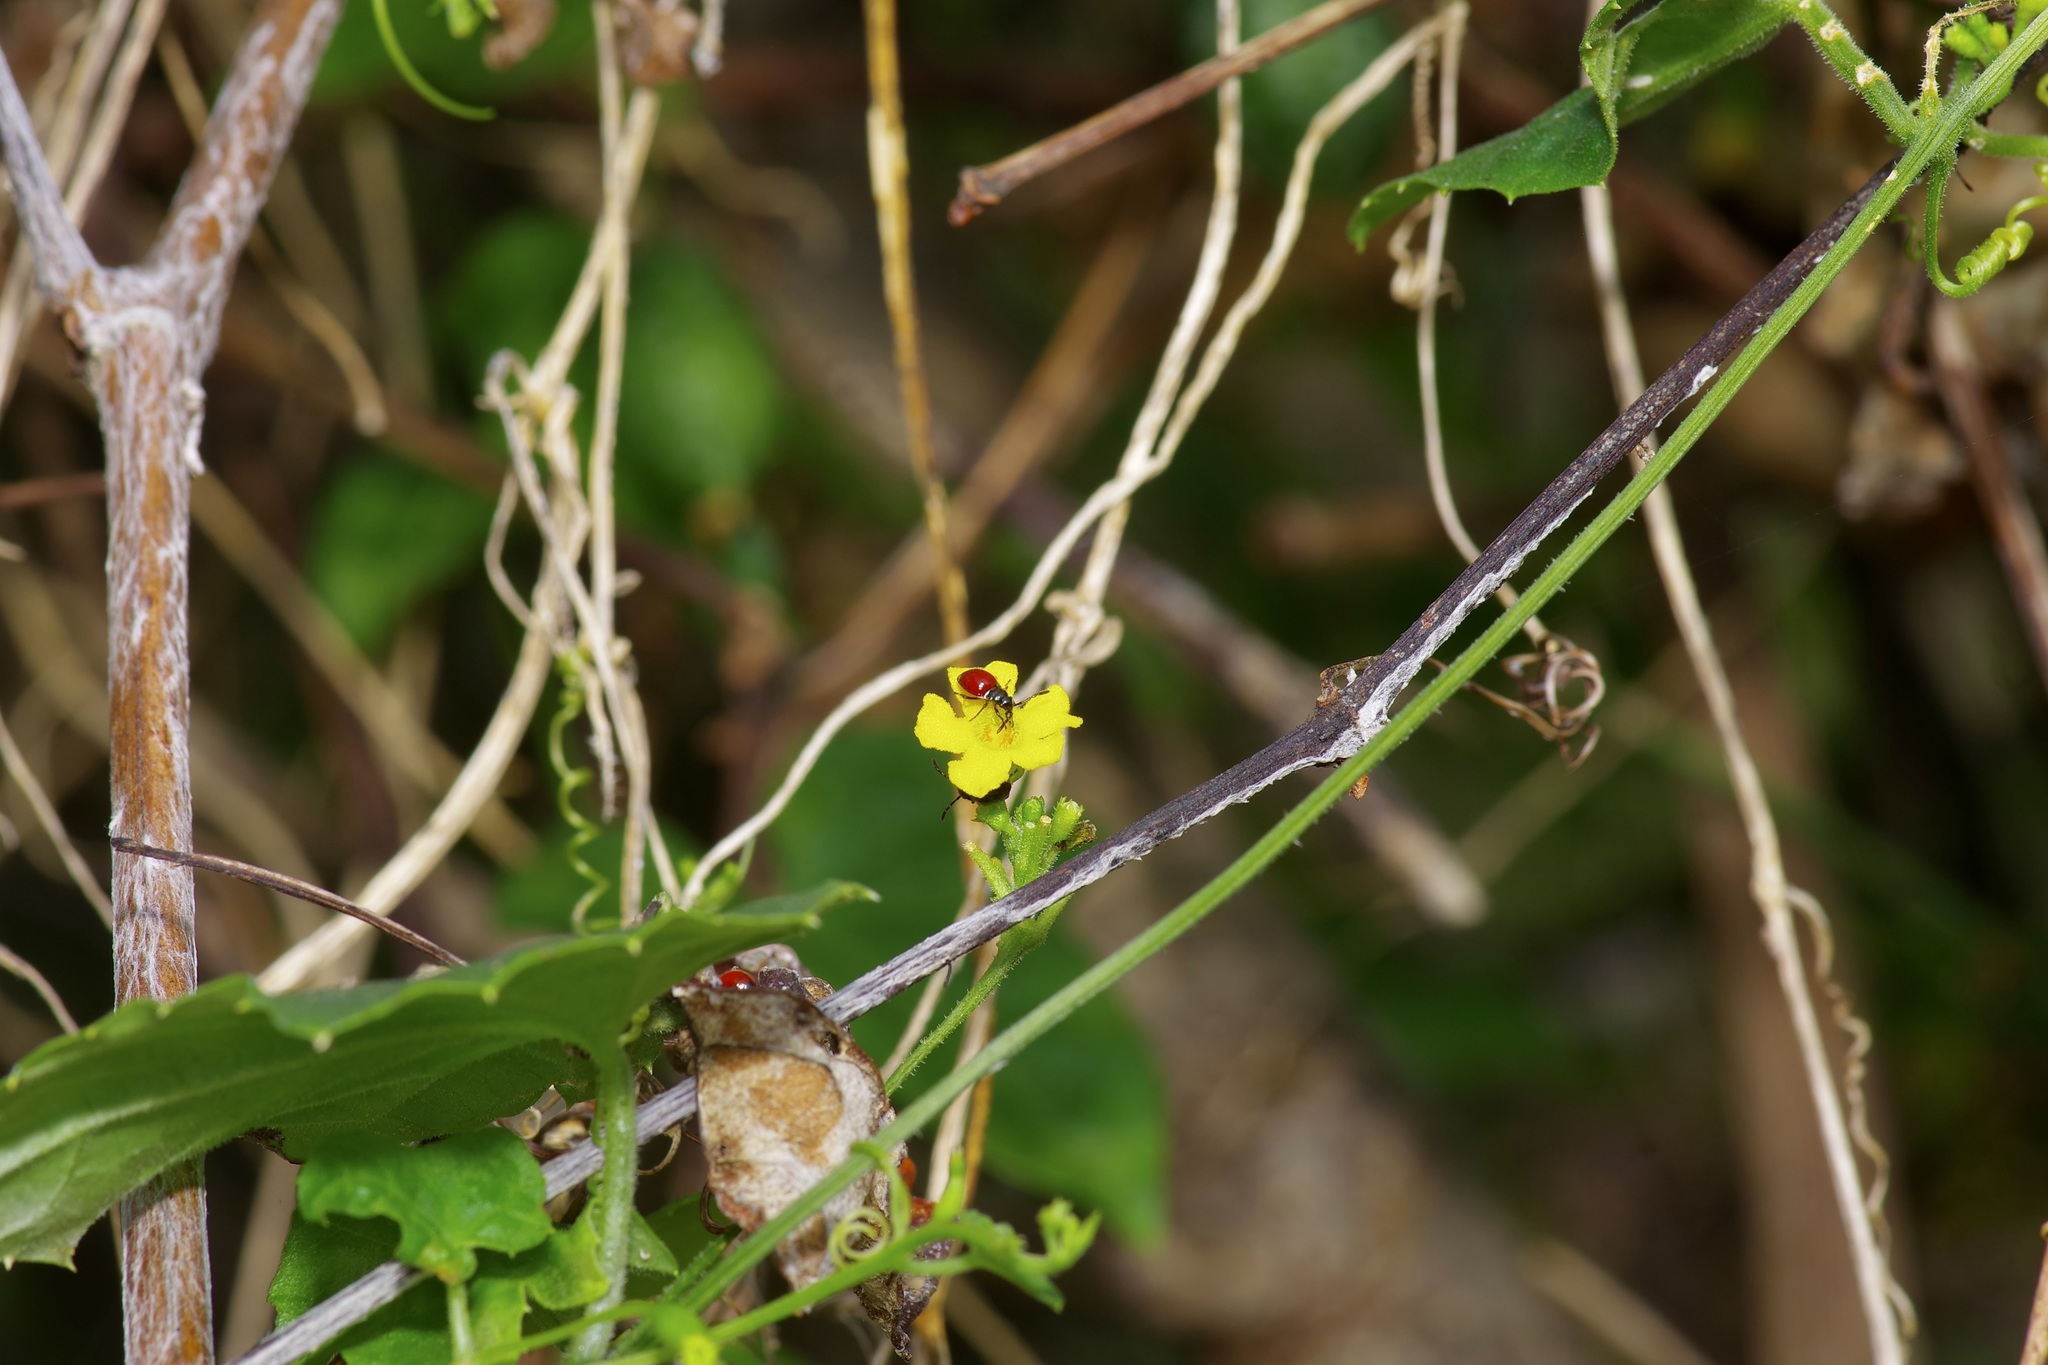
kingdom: Plantae
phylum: Tracheophyta
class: Magnoliopsida
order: Cucurbitales
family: Cucurbitaceae
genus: Melothria
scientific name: Melothria pendula
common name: Creeping-cucumber
